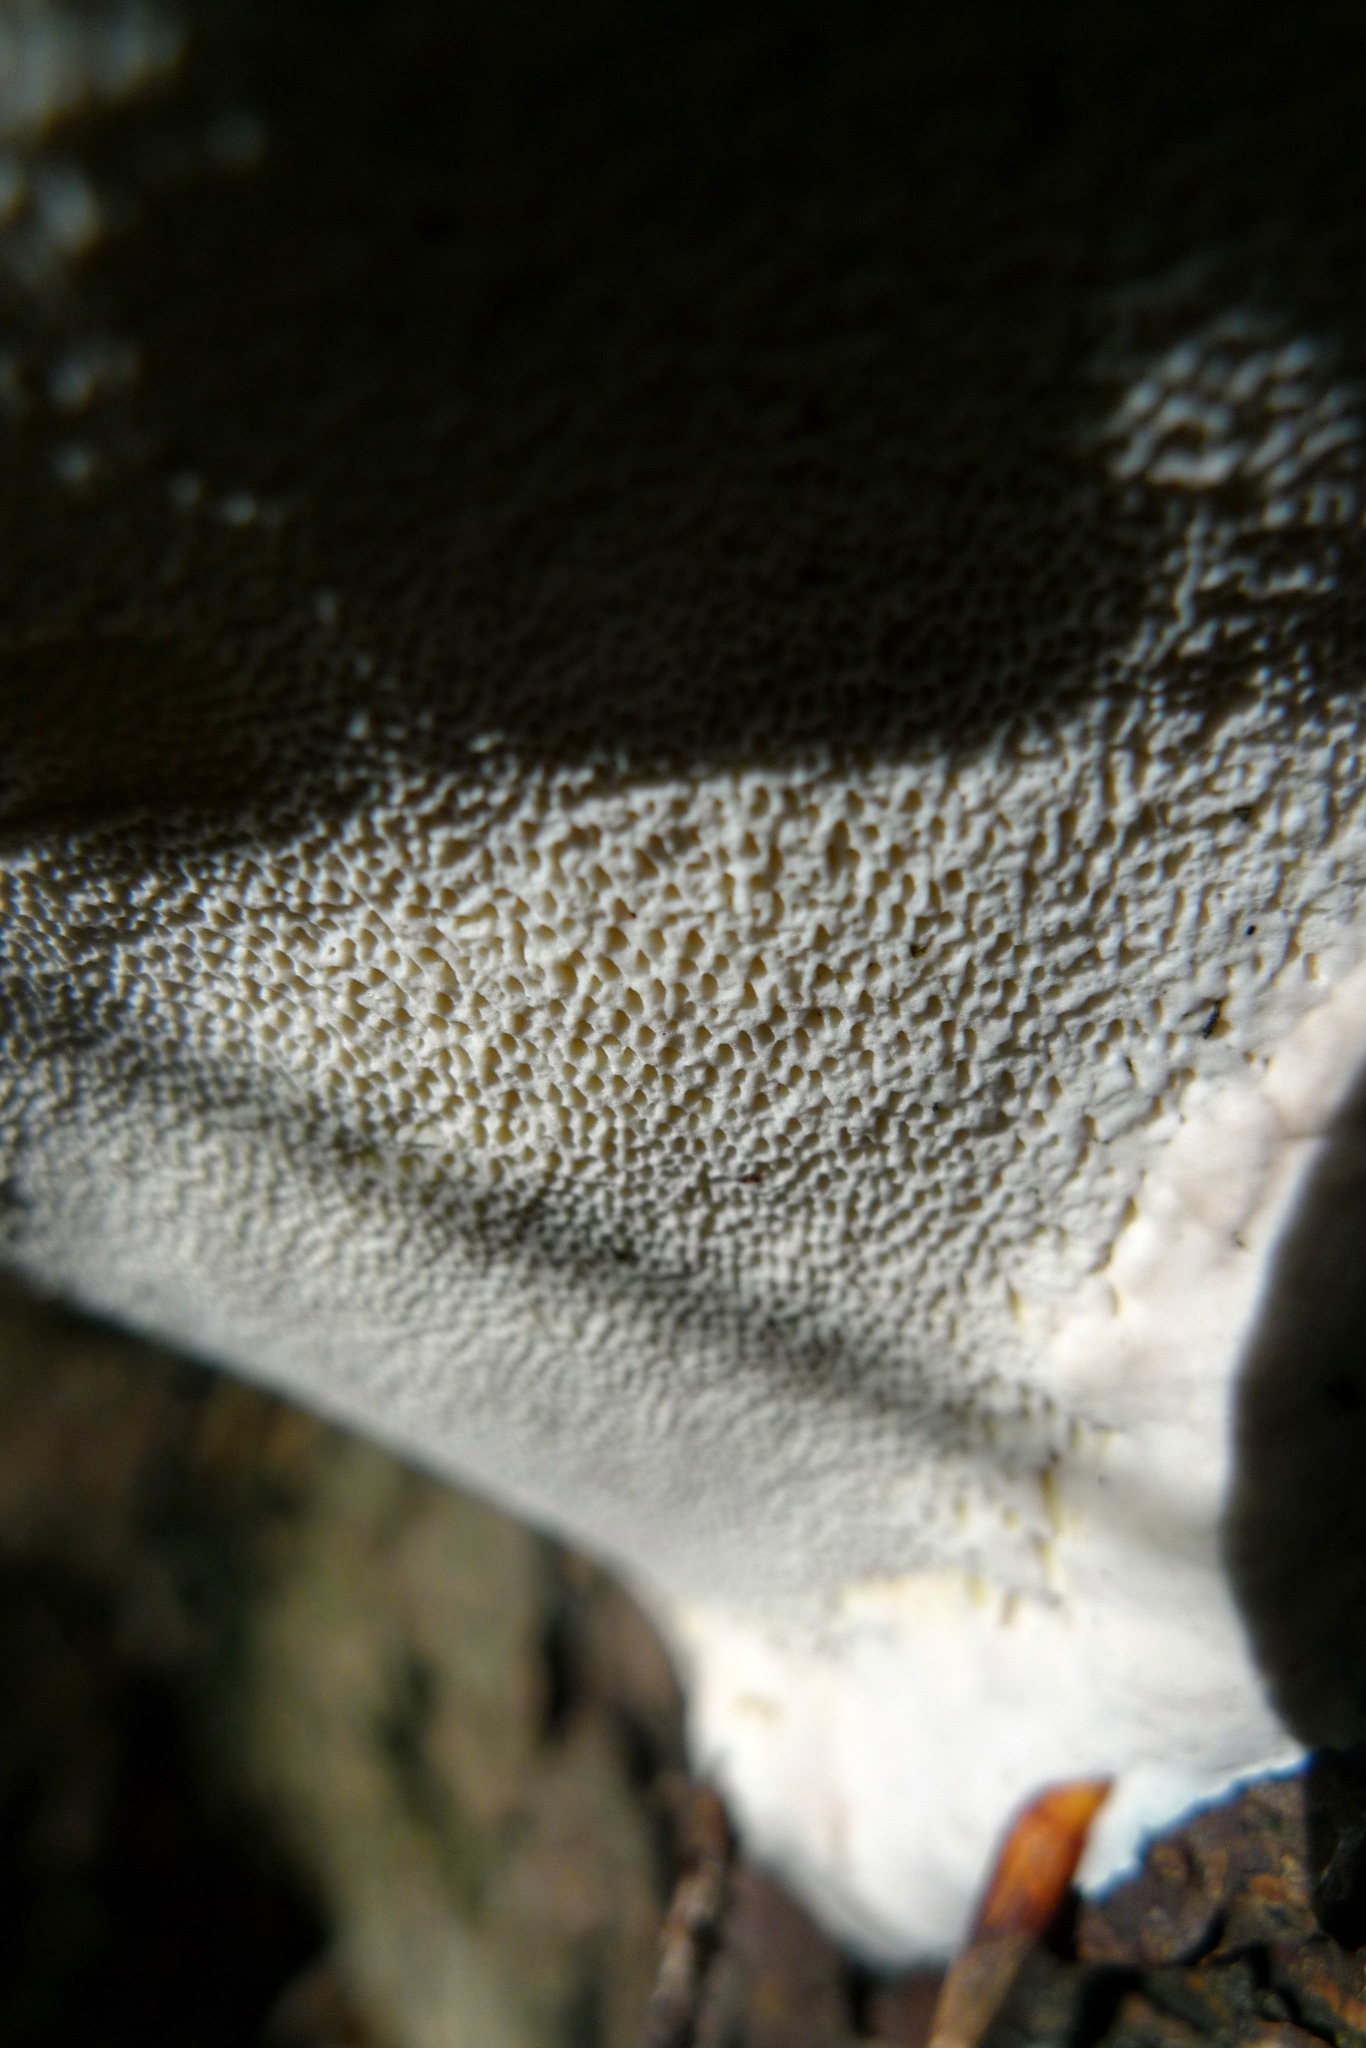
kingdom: Fungi
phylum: Basidiomycota
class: Agaricomycetes
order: Polyporales
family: Fomitopsidaceae
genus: Fomitopsis
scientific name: Fomitopsis pinicola
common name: Red-belted bracket
